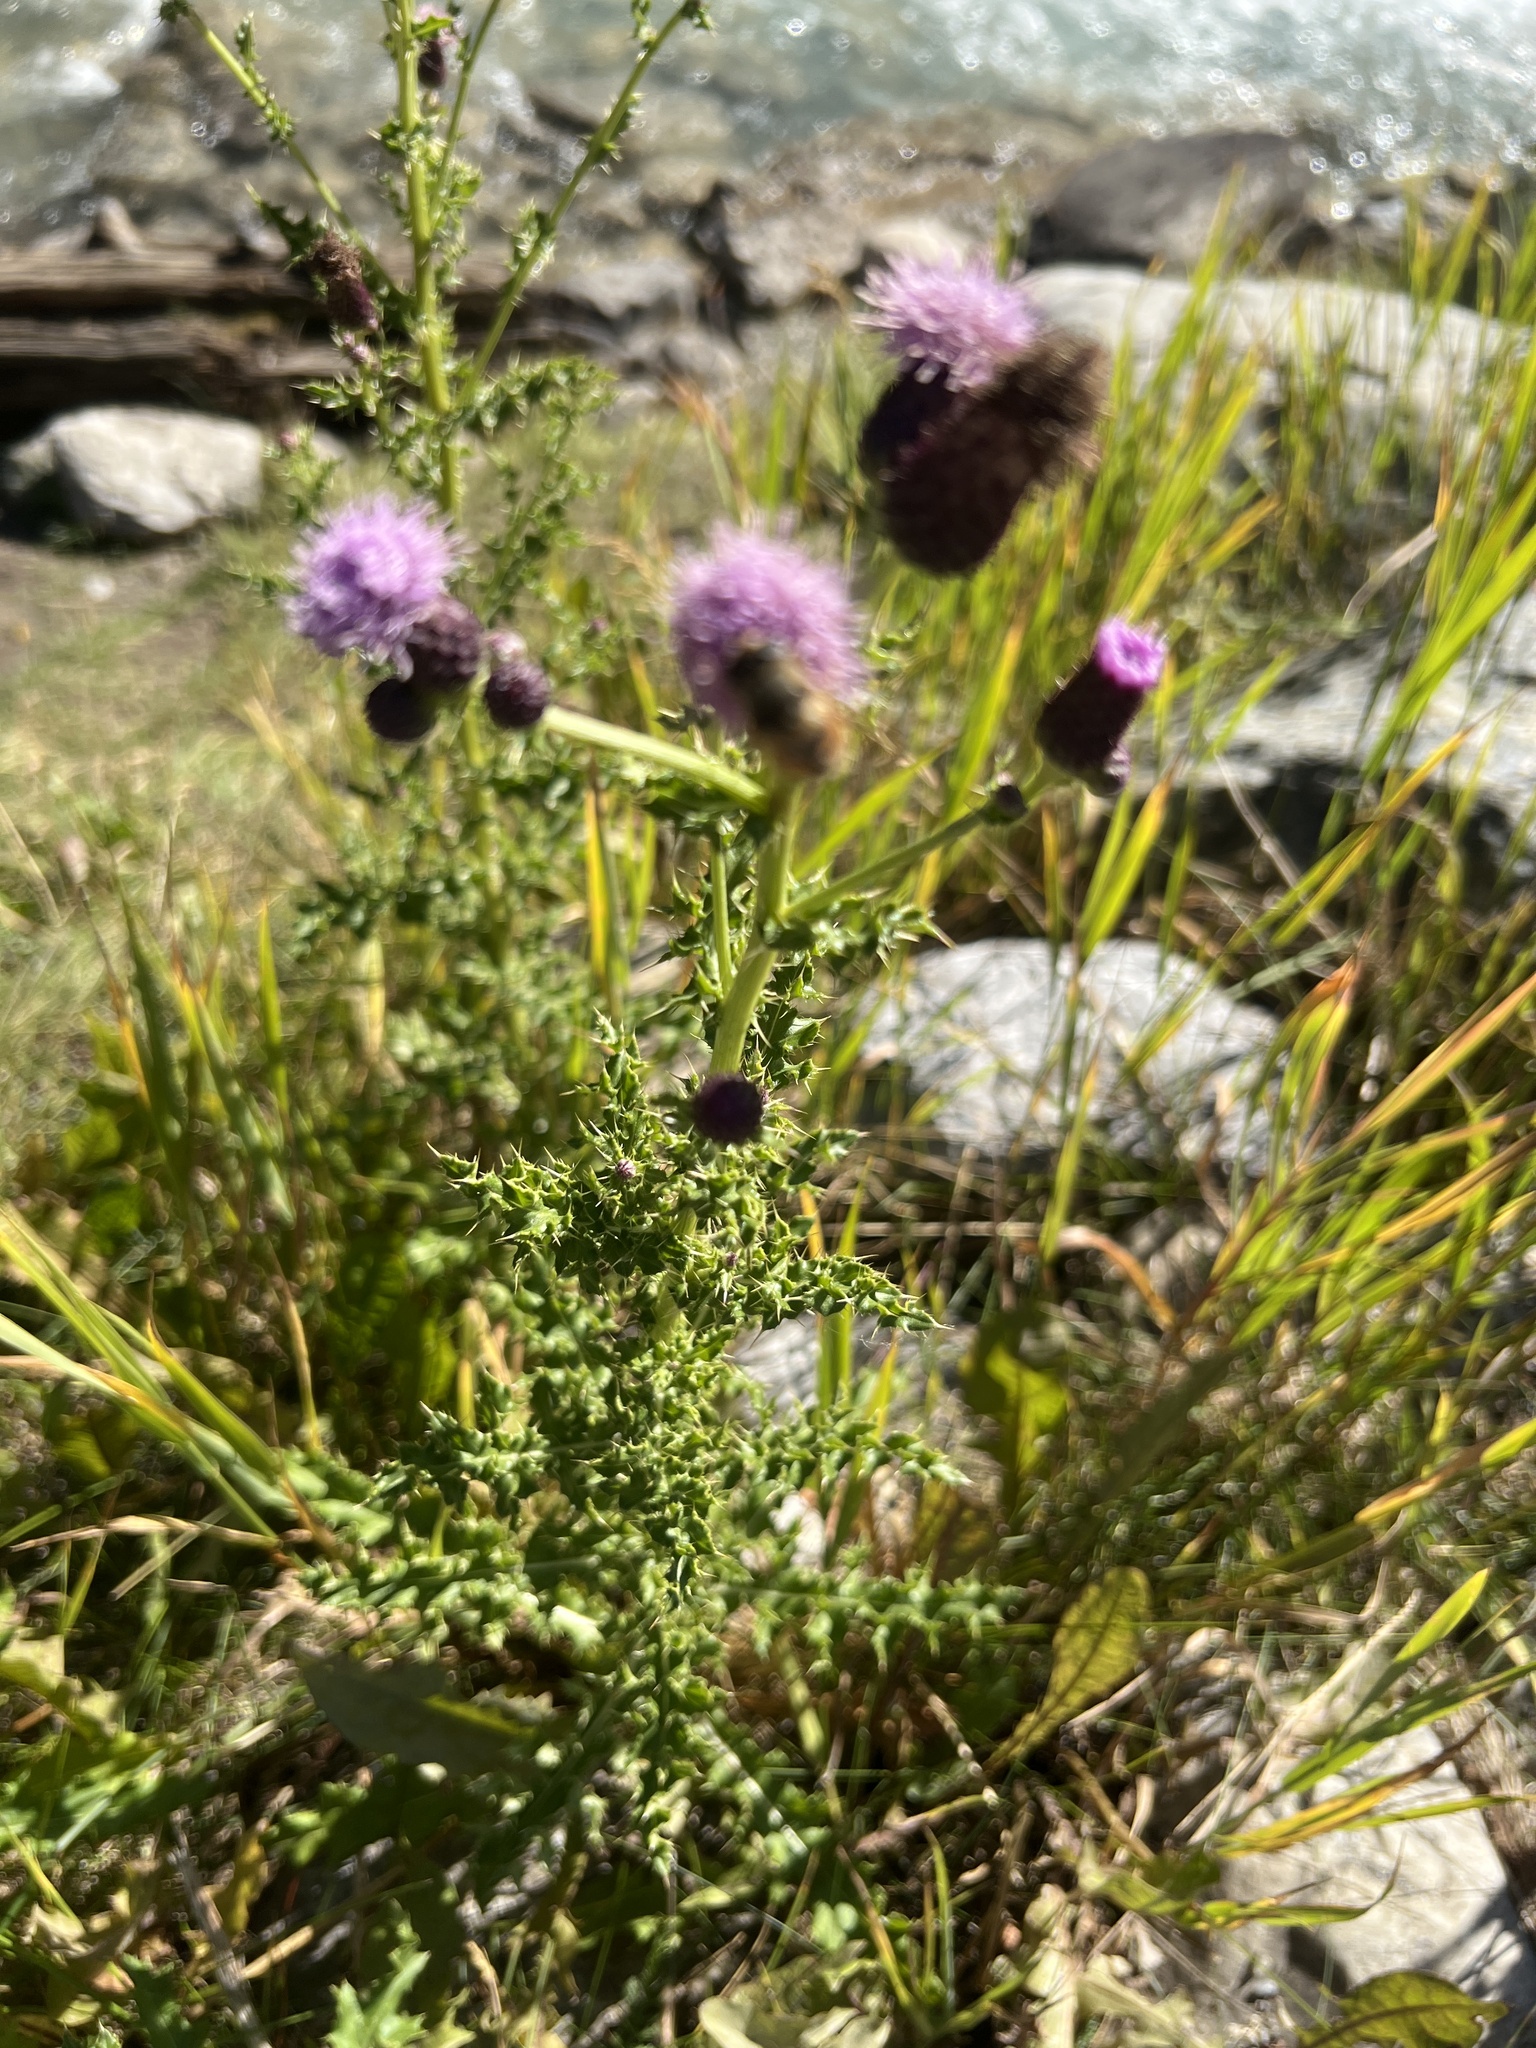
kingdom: Plantae
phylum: Tracheophyta
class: Magnoliopsida
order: Asterales
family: Asteraceae
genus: Cirsium
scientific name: Cirsium arvense
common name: Creeping thistle
